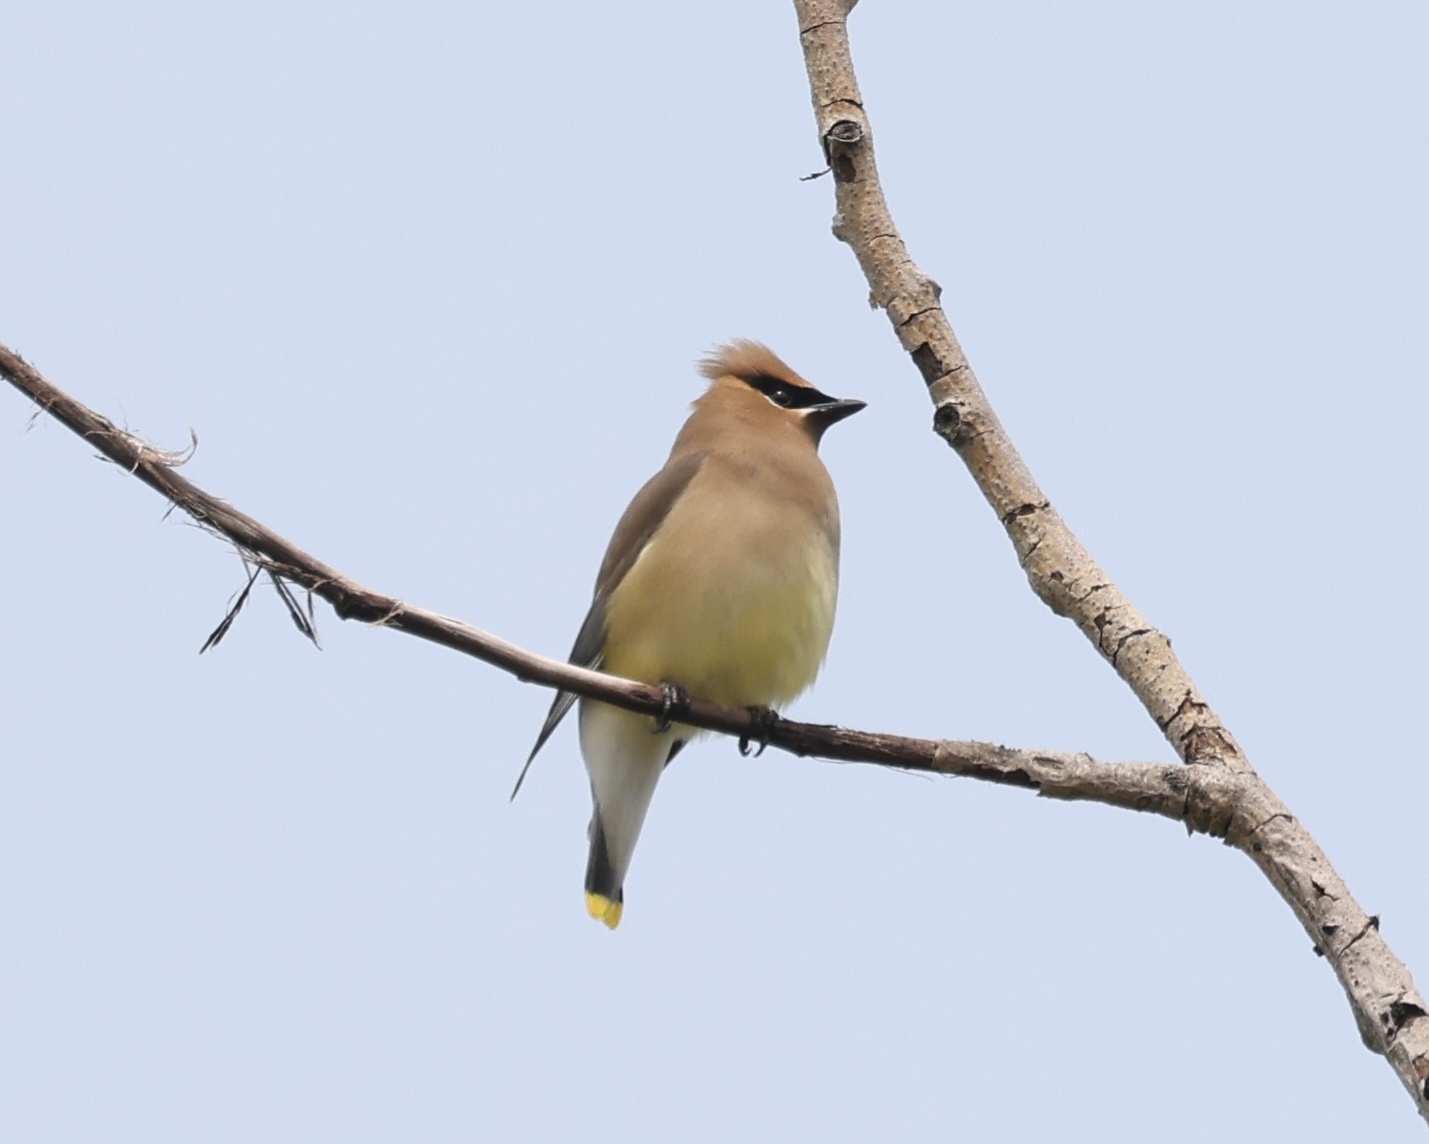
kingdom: Animalia
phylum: Chordata
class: Aves
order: Passeriformes
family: Bombycillidae
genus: Bombycilla
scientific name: Bombycilla cedrorum
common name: Cedar waxwing
